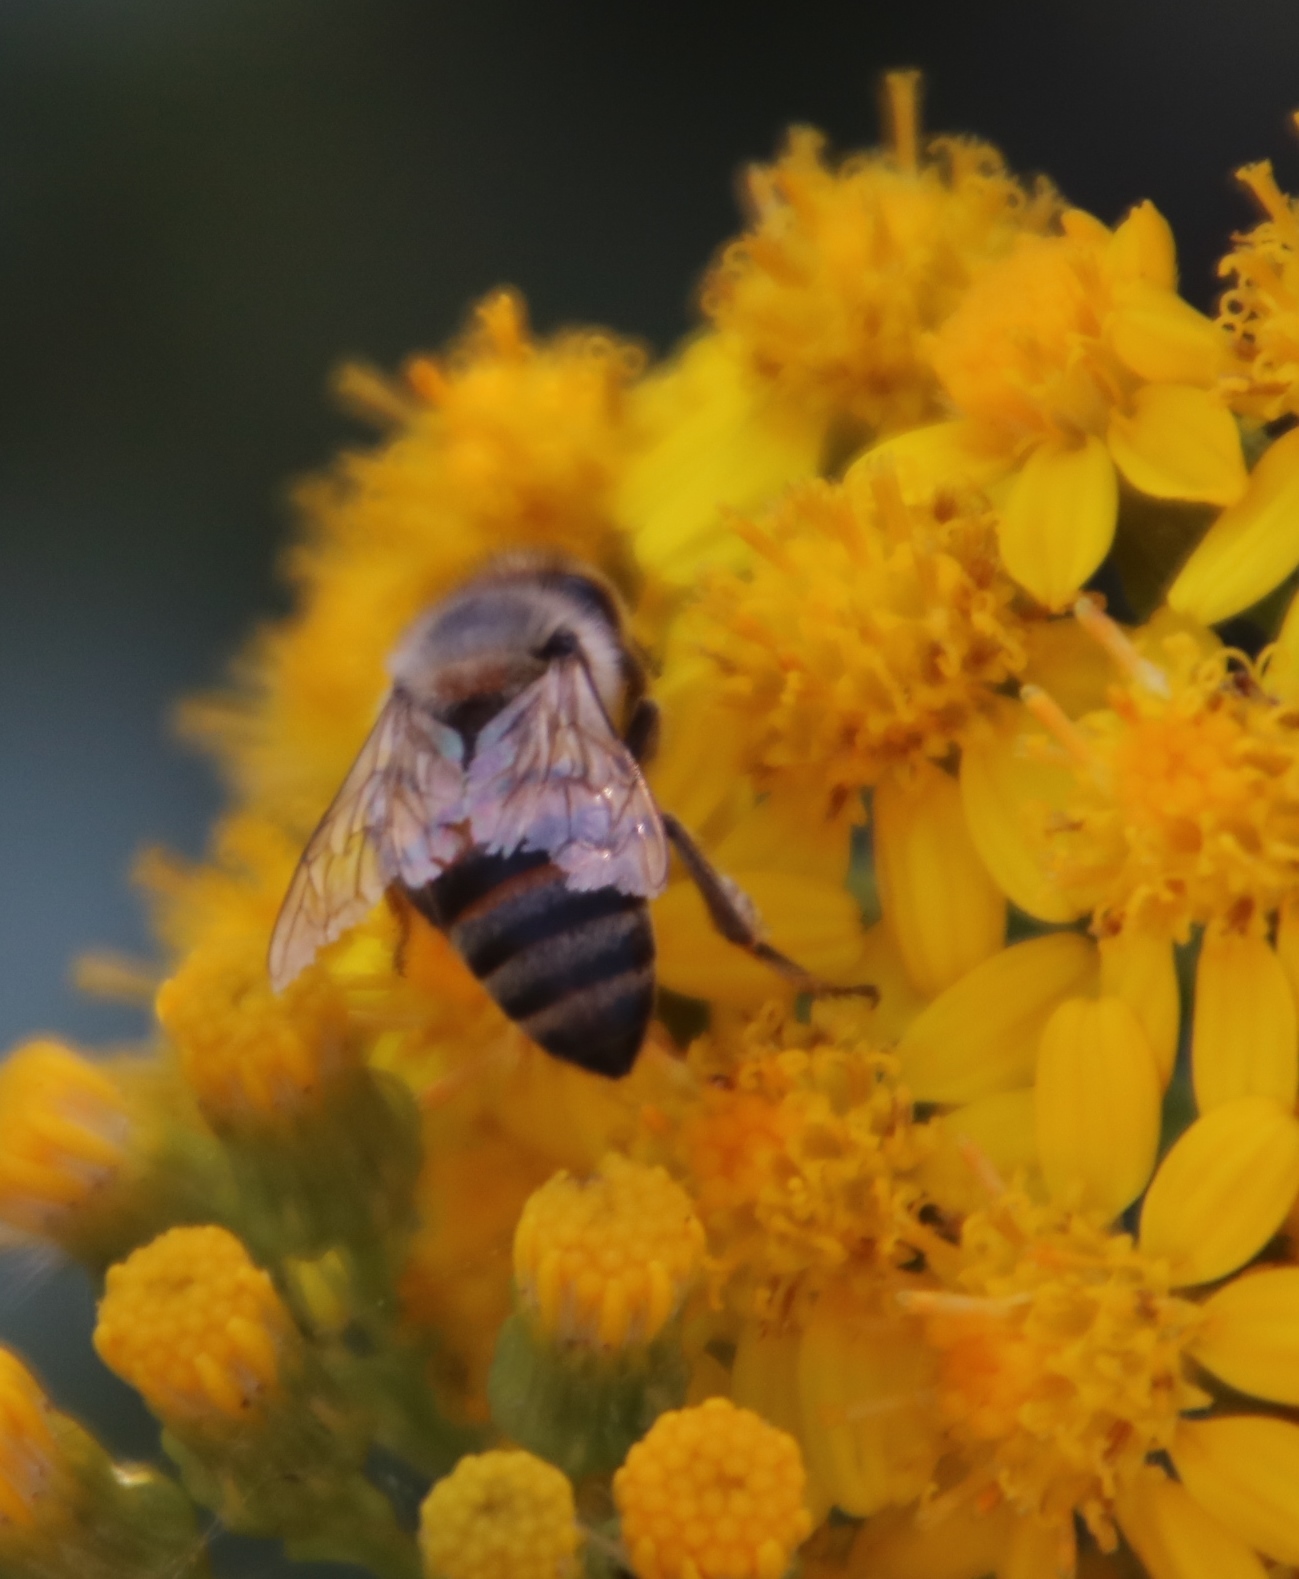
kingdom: Animalia
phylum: Arthropoda
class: Insecta
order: Hymenoptera
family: Apidae
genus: Apis
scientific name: Apis mellifera
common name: Honey bee
